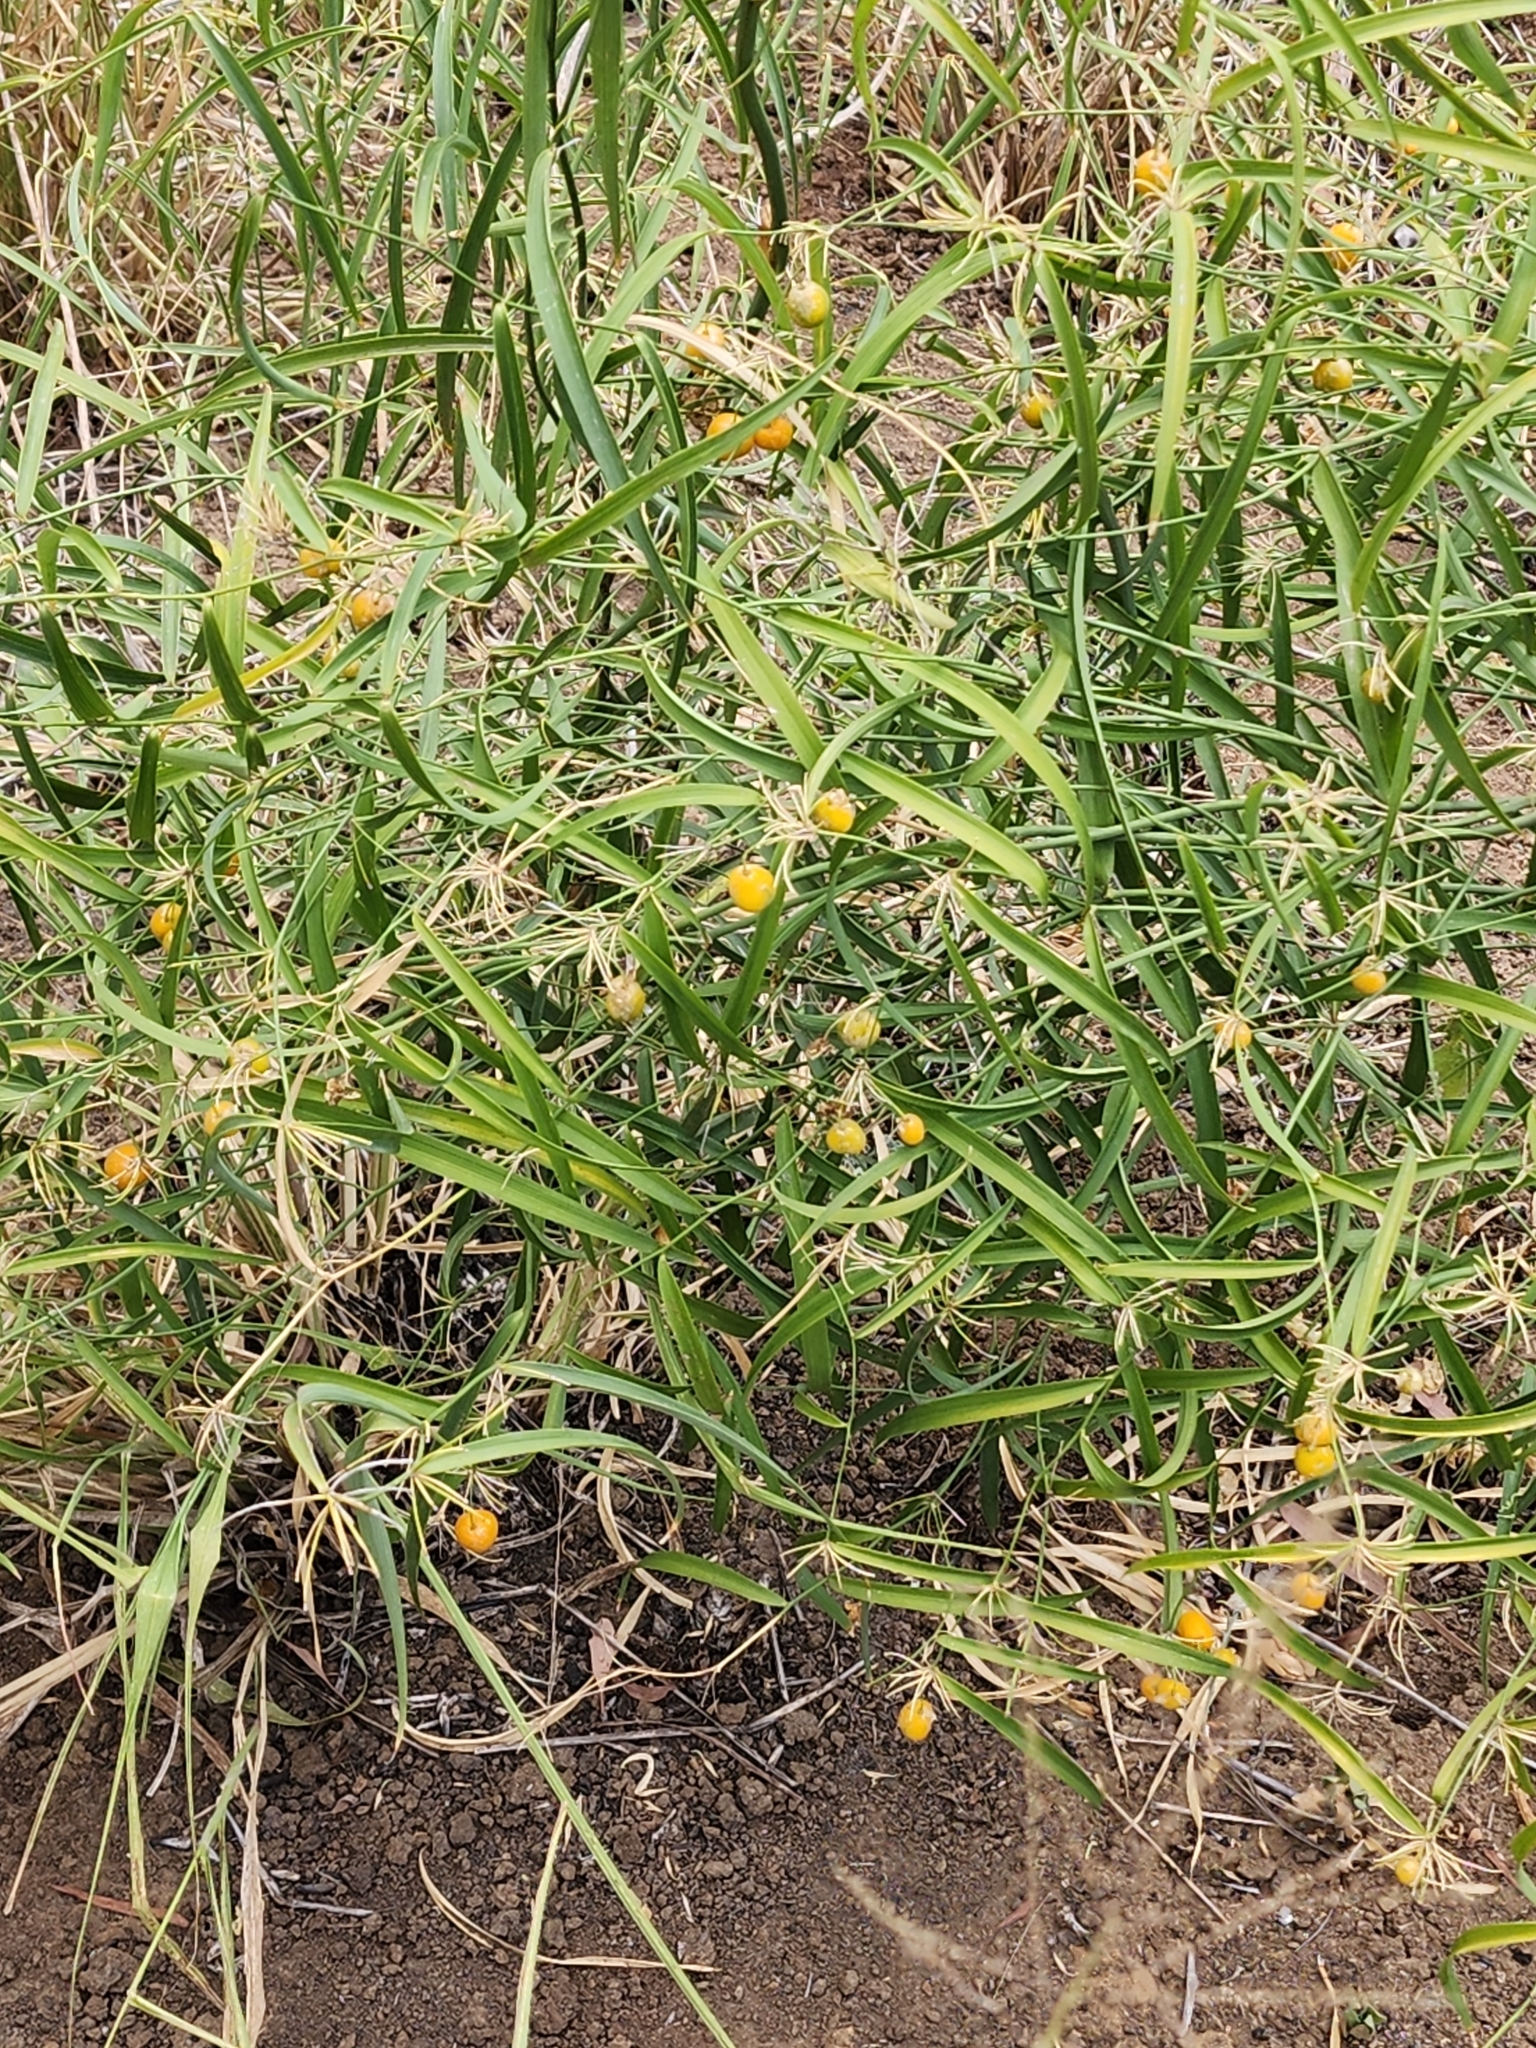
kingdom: Plantae
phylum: Tracheophyta
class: Liliopsida
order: Asparagales
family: Asparagaceae
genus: Eustrephus
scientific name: Eustrephus latifolius
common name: Orangevine
